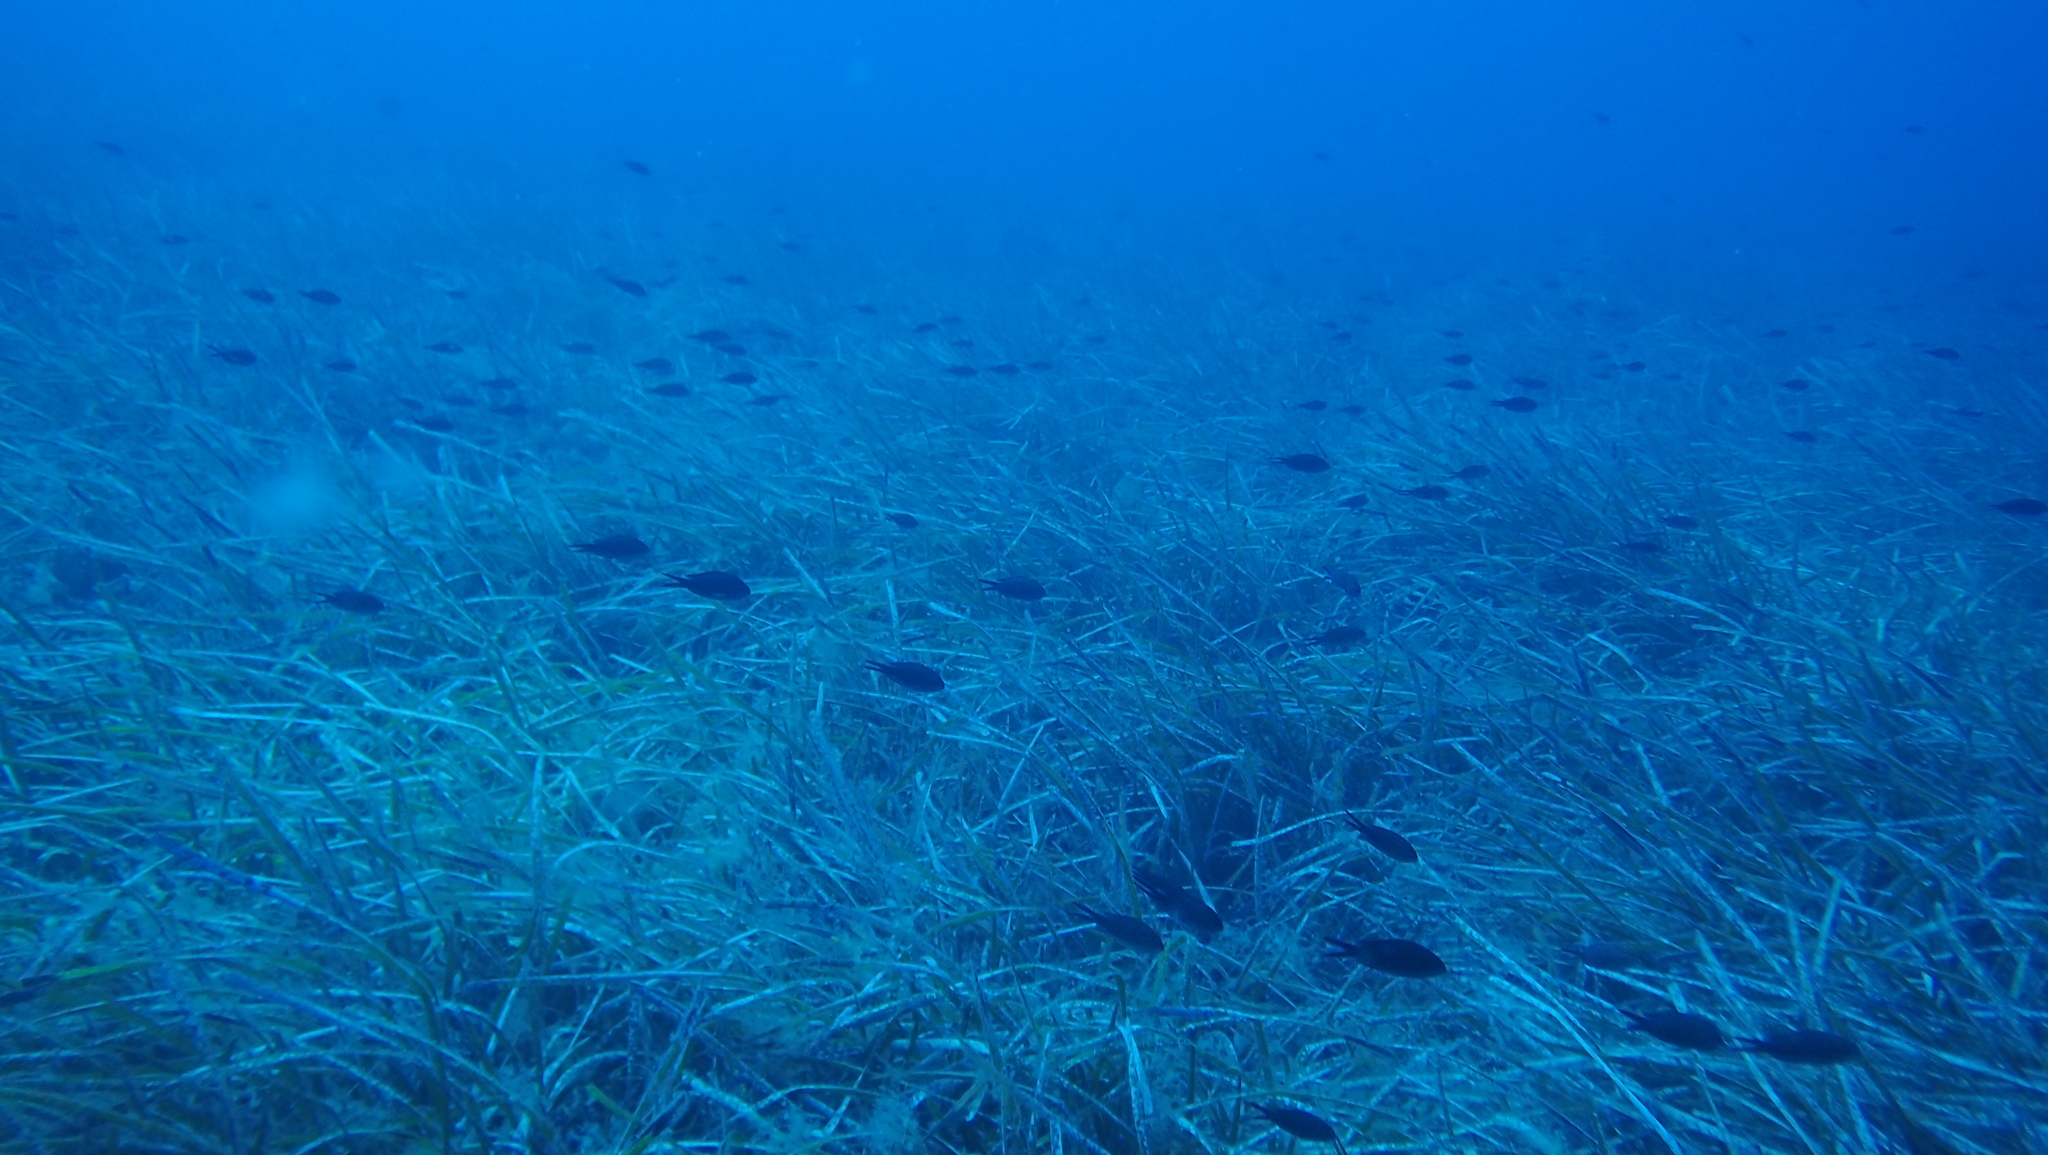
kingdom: Animalia
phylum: Chordata
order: Perciformes
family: Pomacentridae
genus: Chromis
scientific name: Chromis chromis
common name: Damselfish
